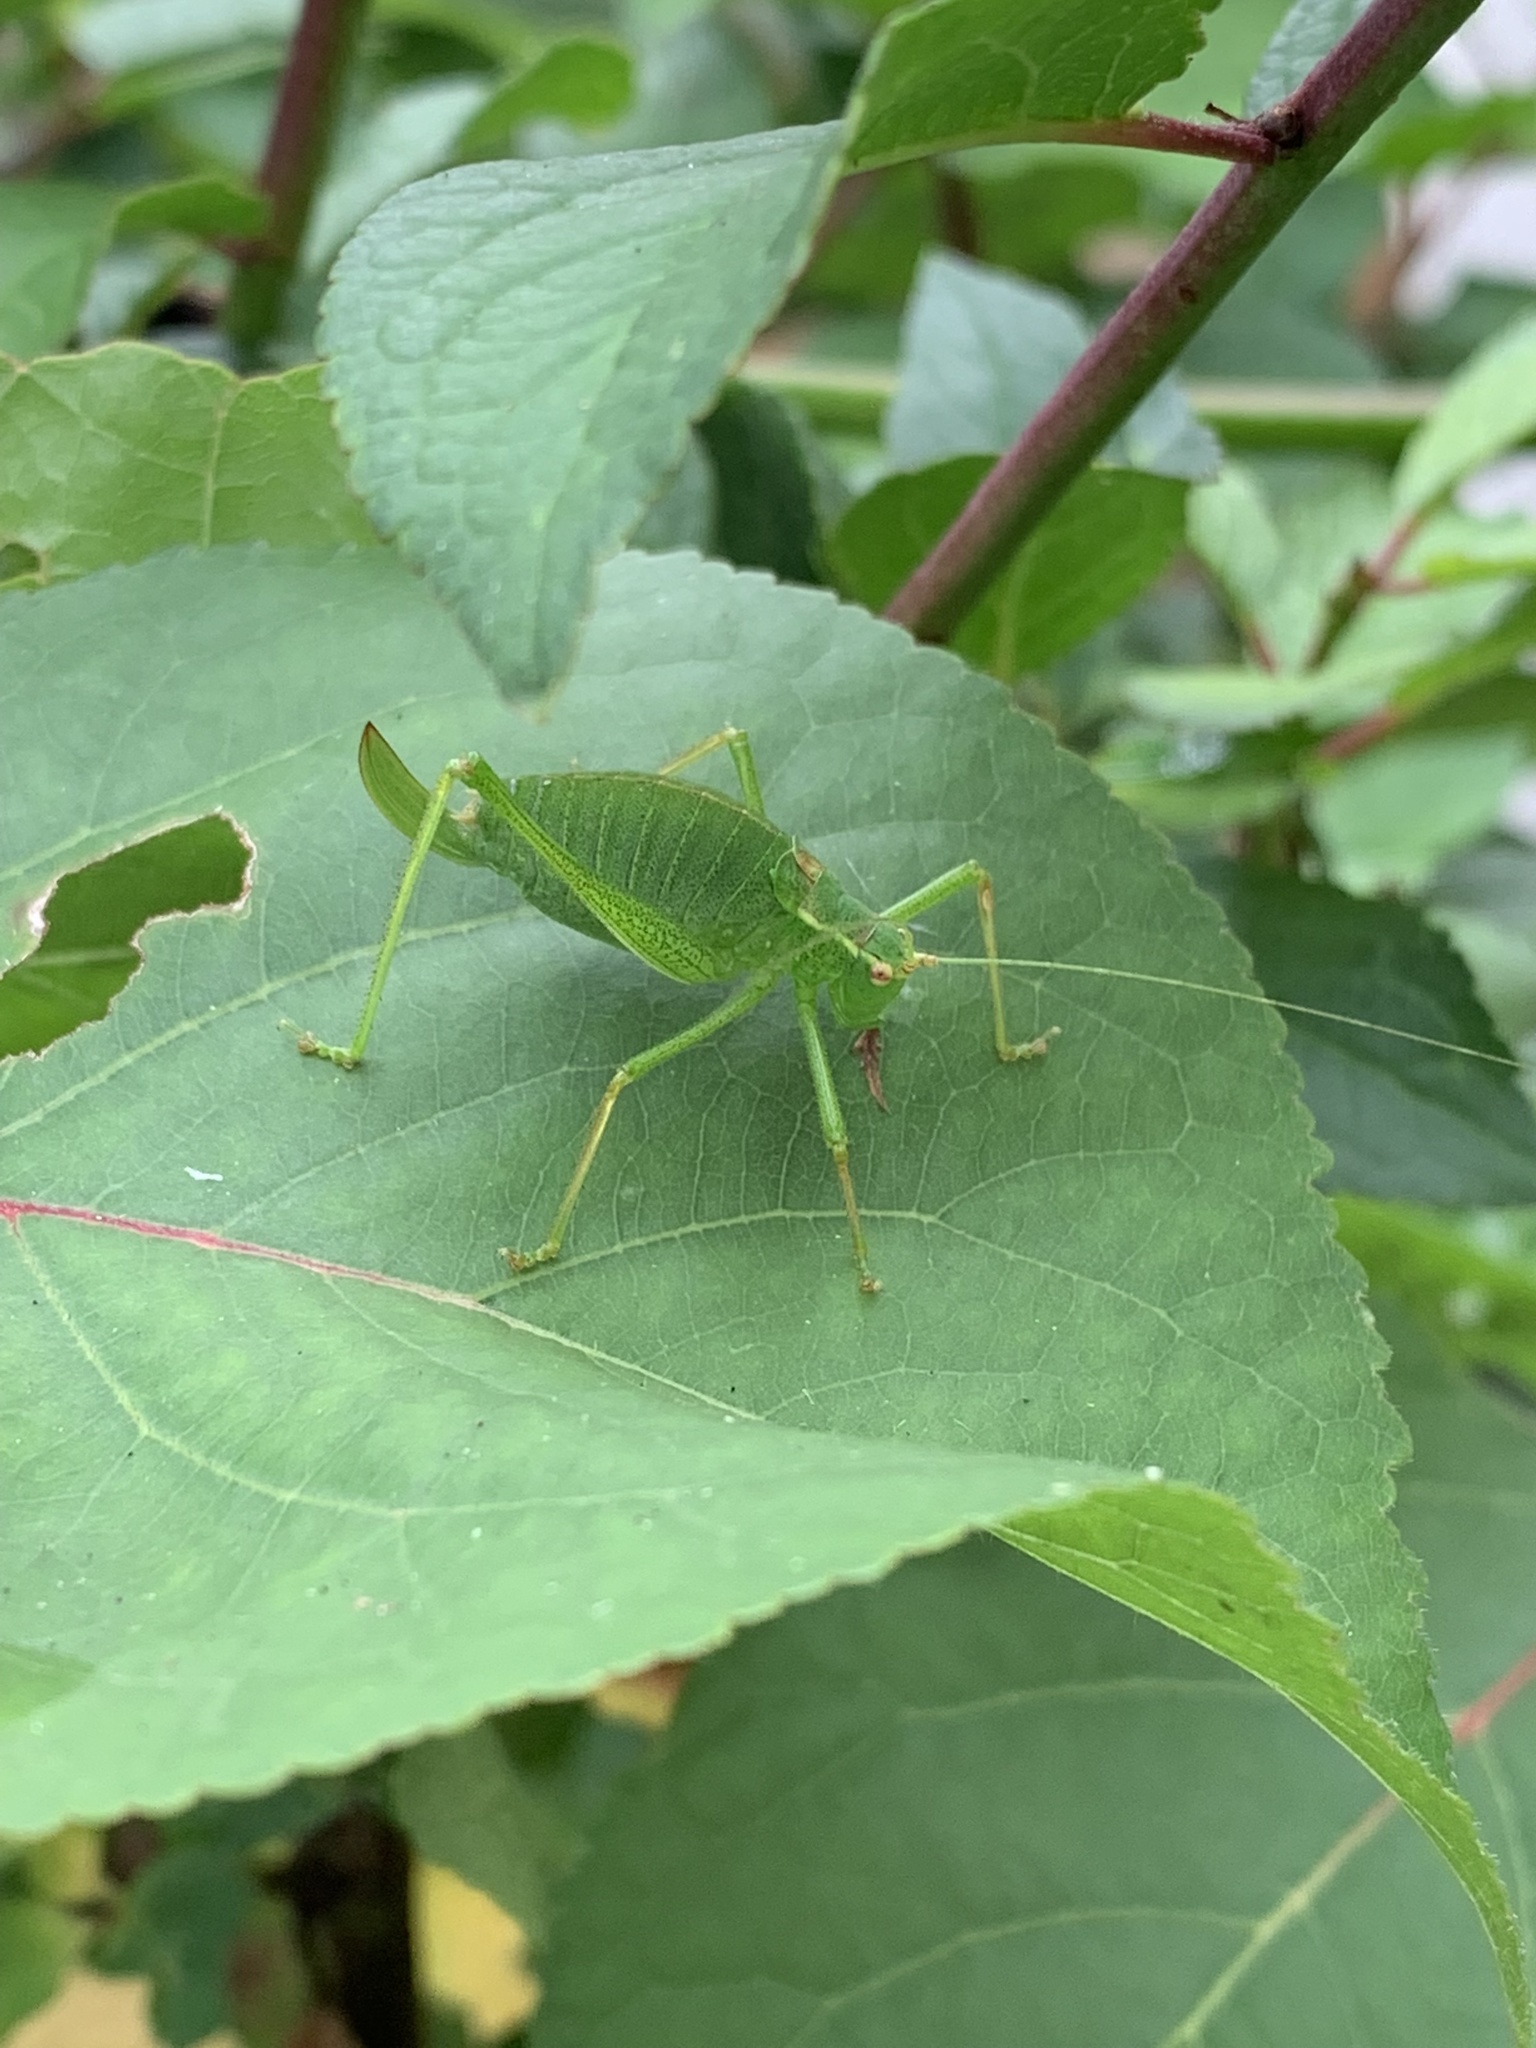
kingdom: Animalia
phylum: Arthropoda
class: Insecta
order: Orthoptera
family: Tettigoniidae
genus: Leptophyes
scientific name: Leptophyes punctatissima
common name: Speckled bush-cricket
